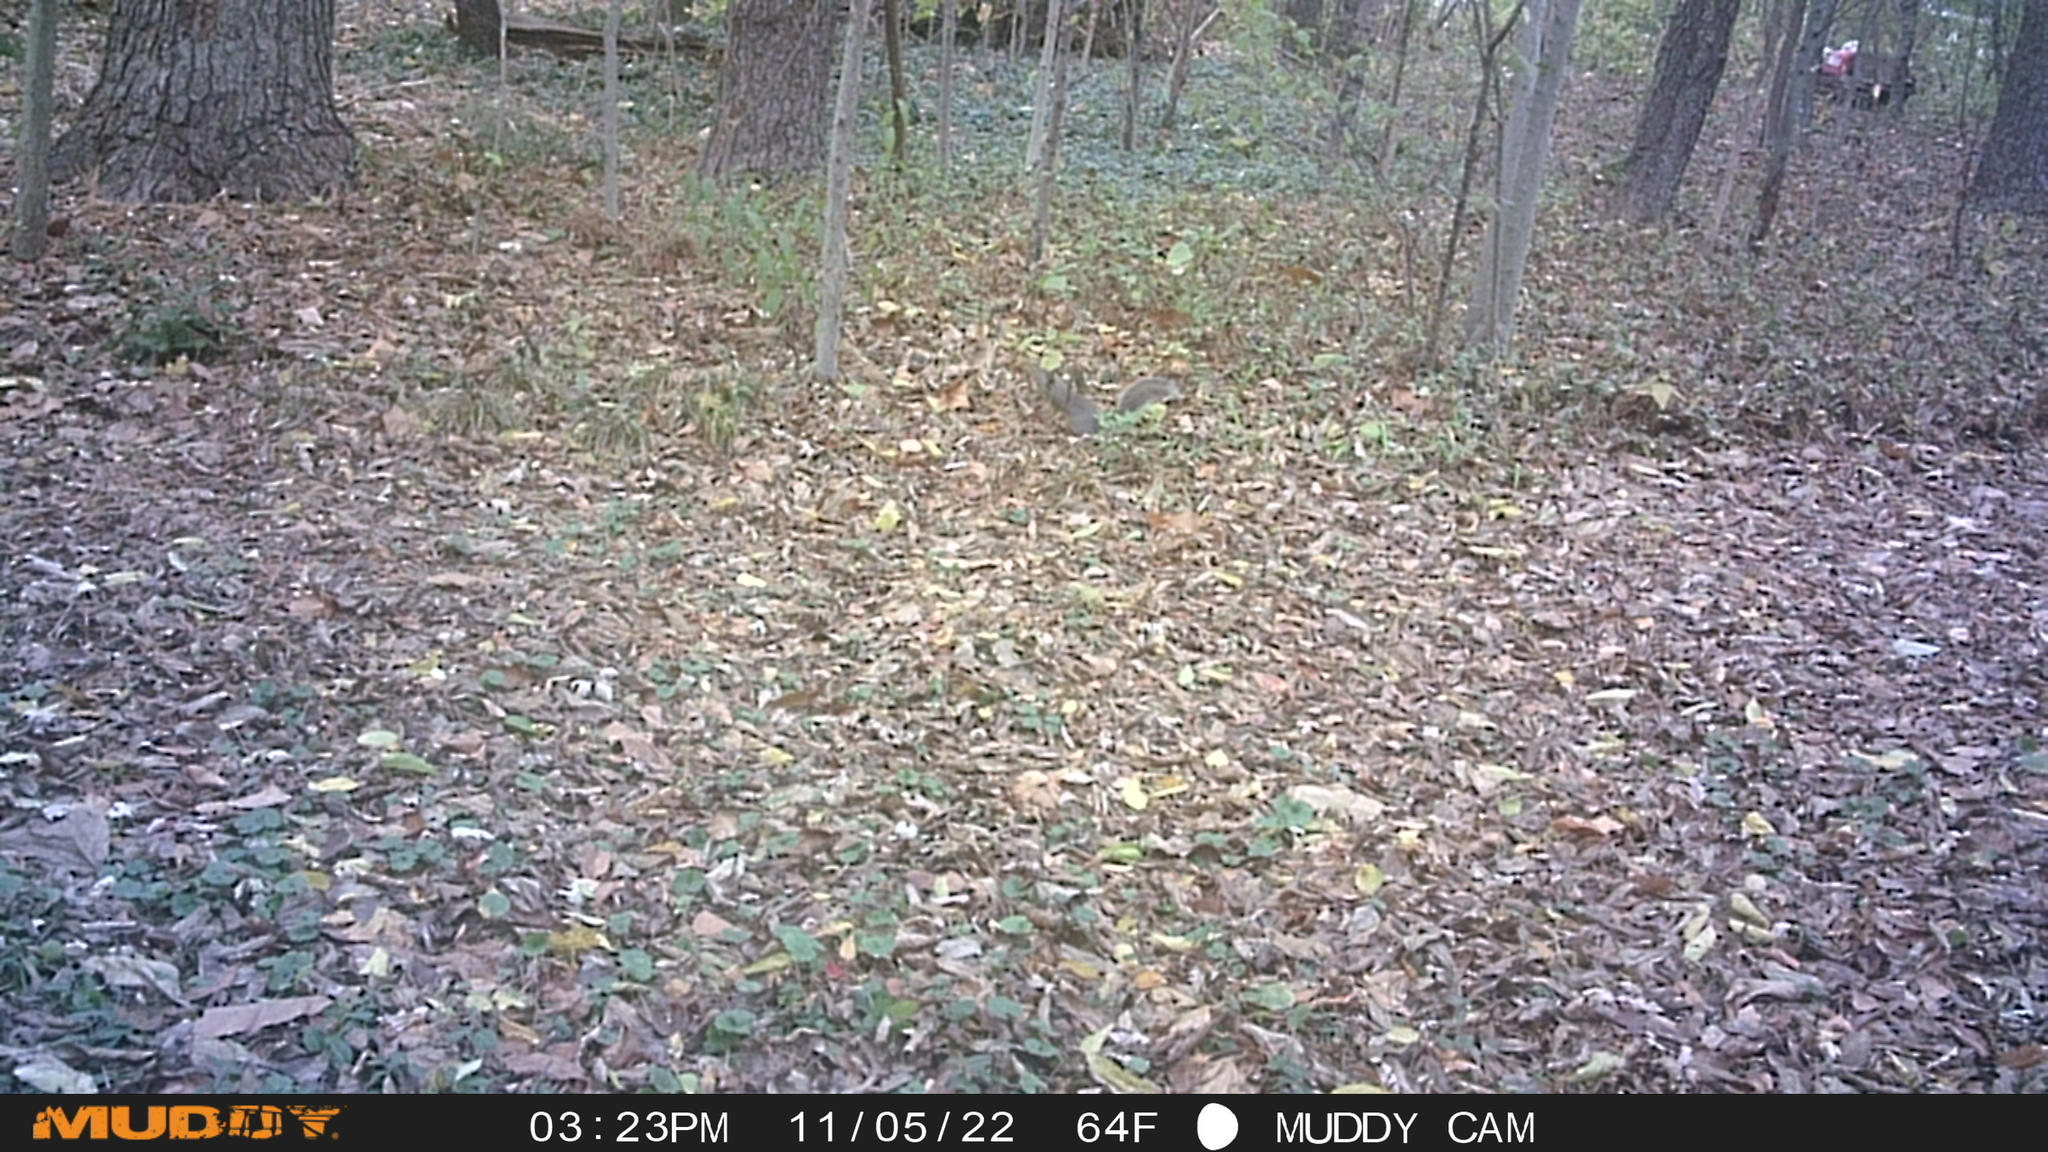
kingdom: Animalia
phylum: Chordata
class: Mammalia
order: Rodentia
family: Sciuridae
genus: Sciurus
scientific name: Sciurus carolinensis
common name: Eastern gray squirrel
